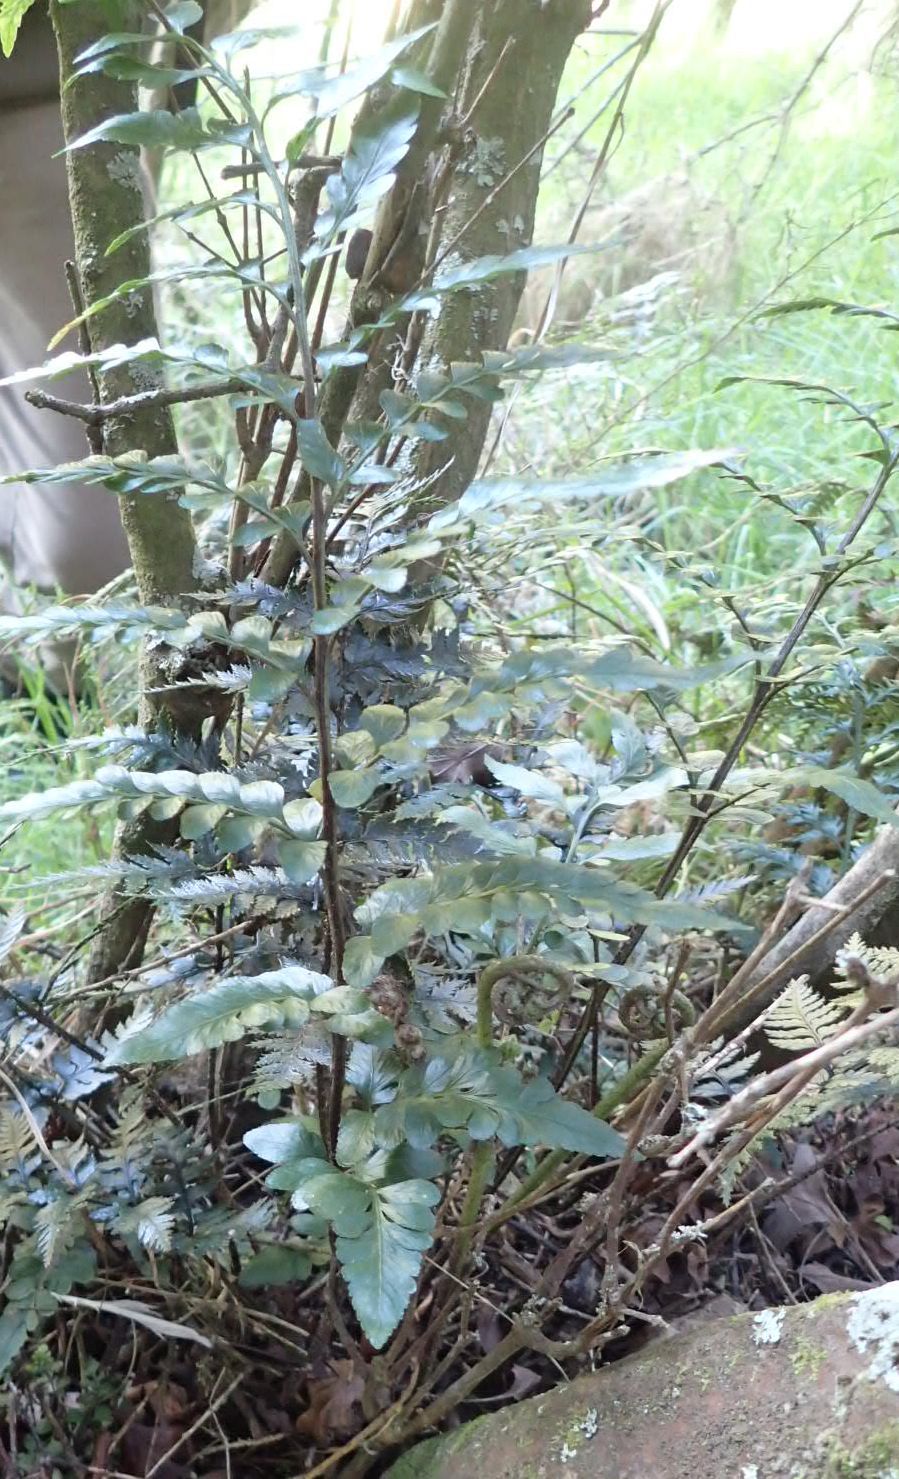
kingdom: Plantae
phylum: Tracheophyta
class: Polypodiopsida
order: Polypodiales
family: Aspleniaceae
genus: Asplenium
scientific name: Asplenium lyallii
